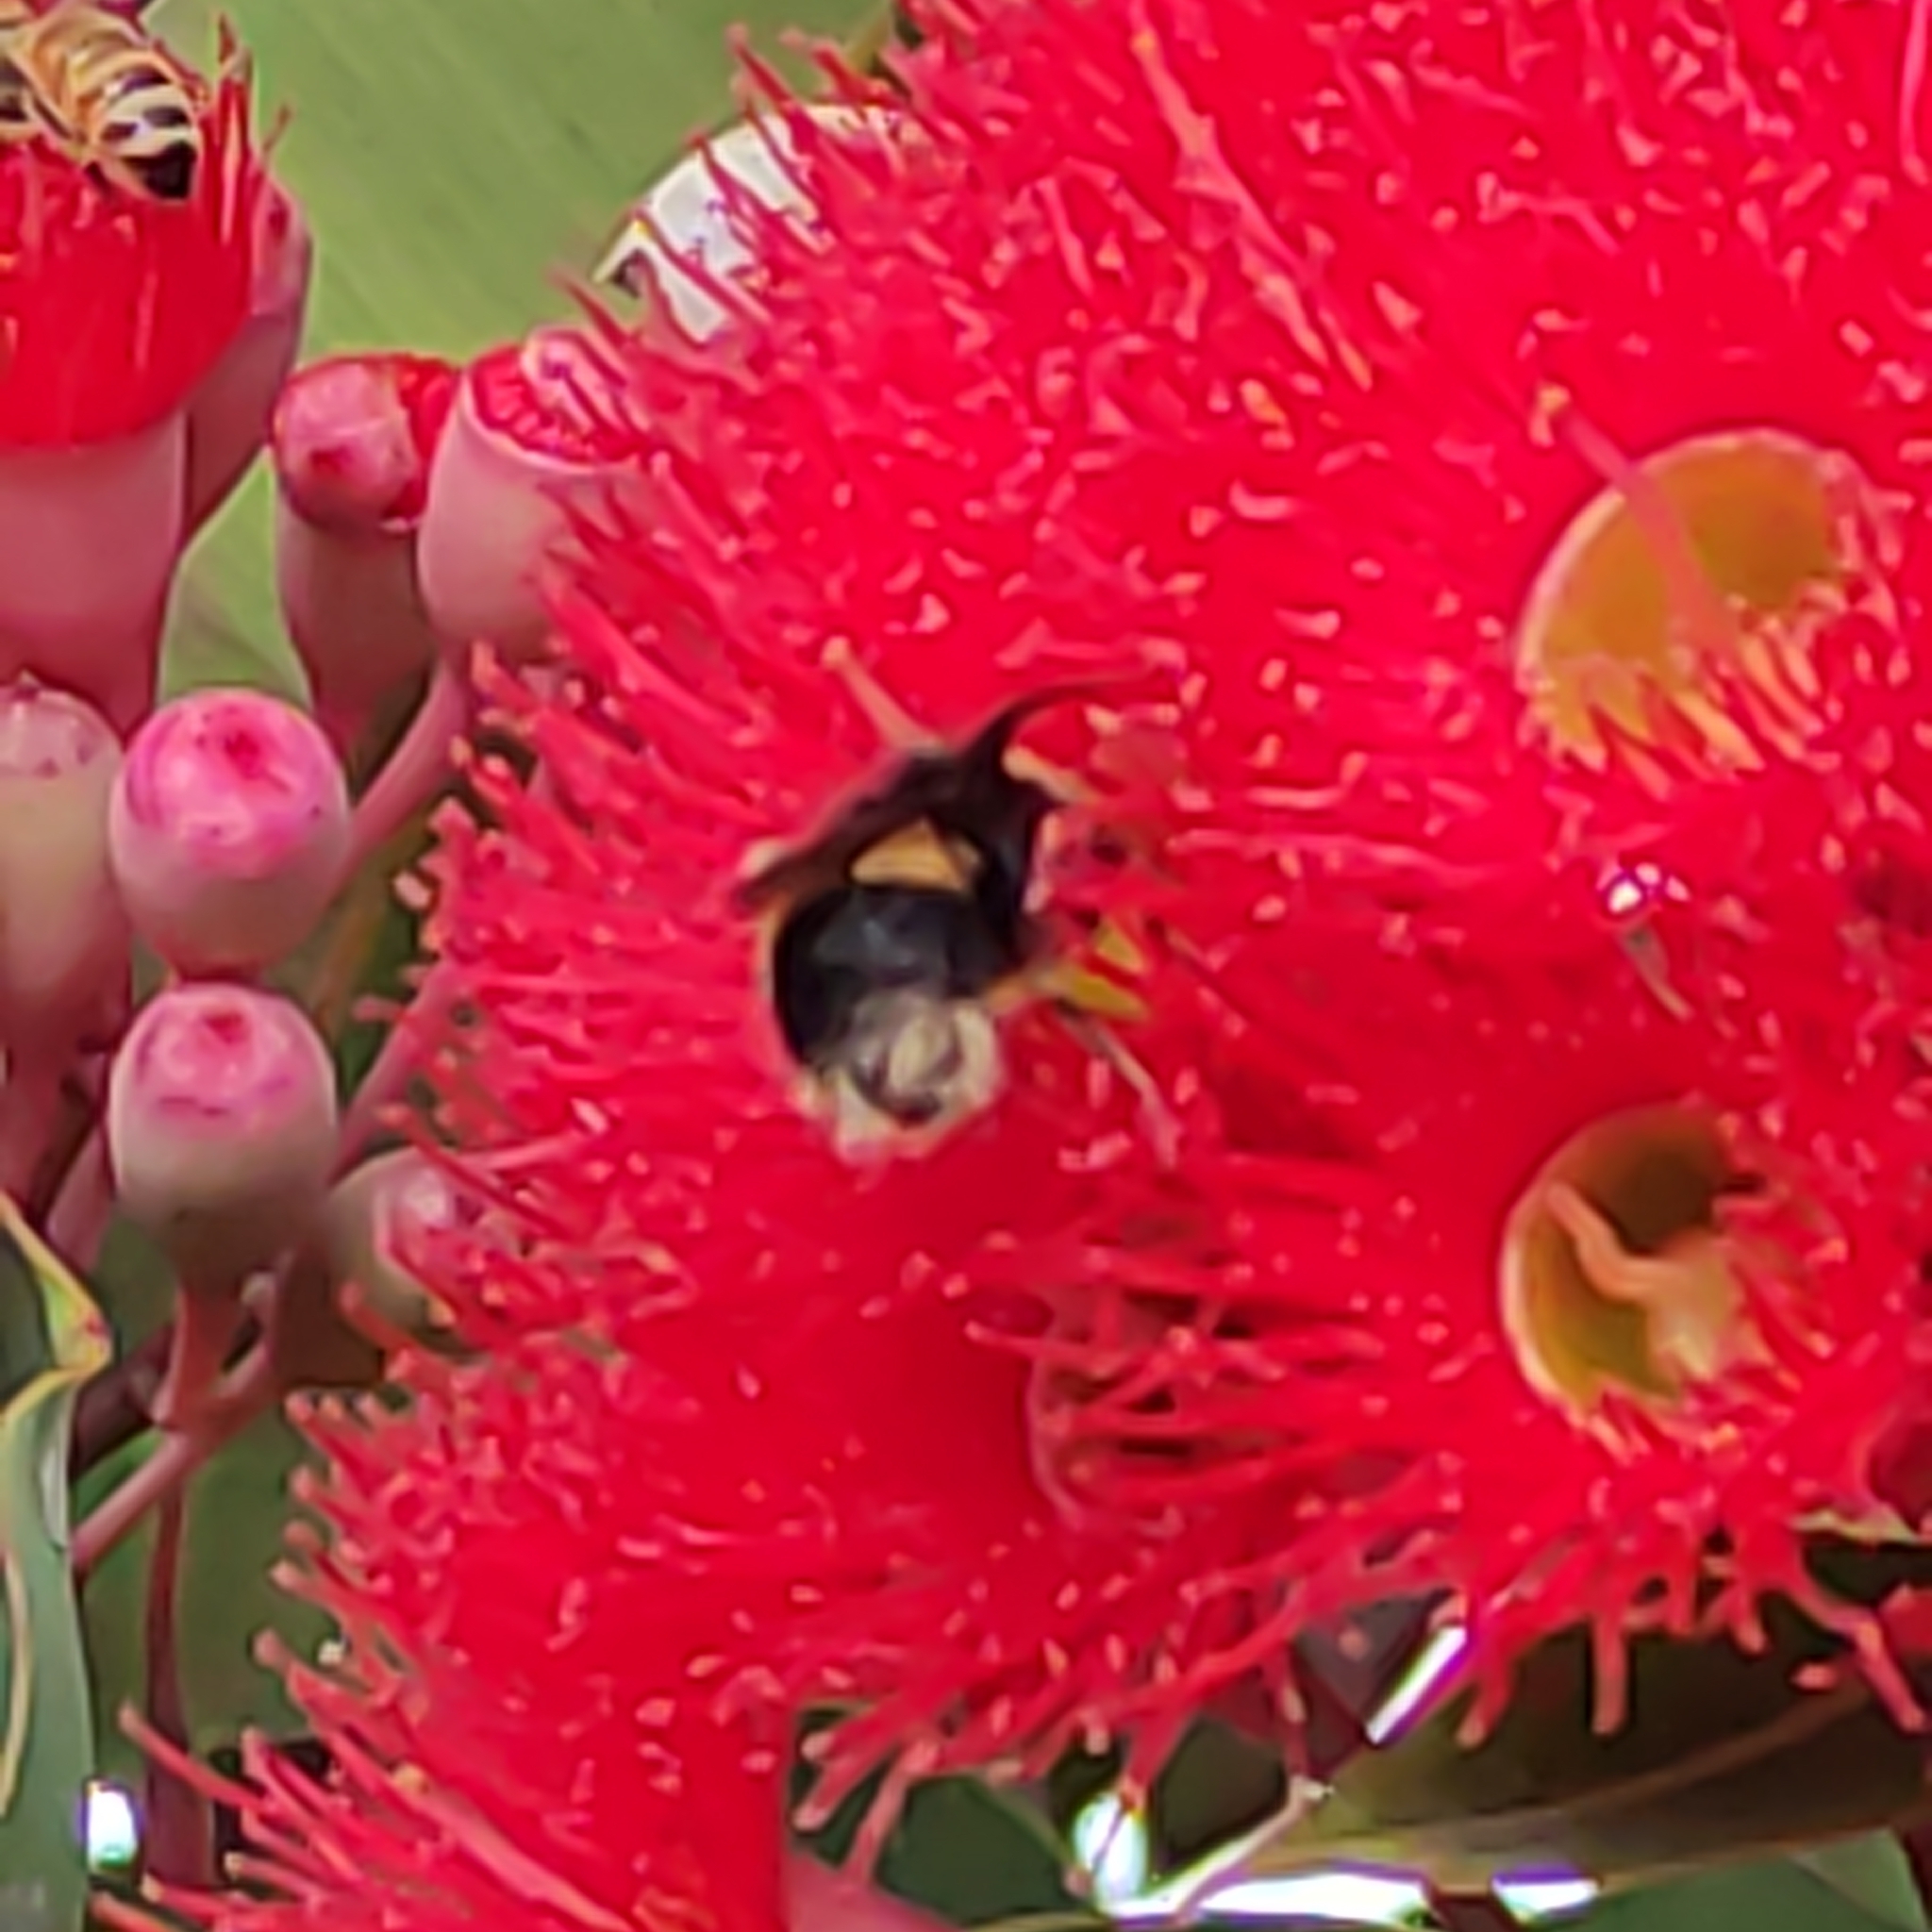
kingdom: Animalia
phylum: Arthropoda
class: Insecta
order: Hymenoptera
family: Apidae
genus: Bombus
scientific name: Bombus terrestris
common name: Buff-tailed bumblebee
